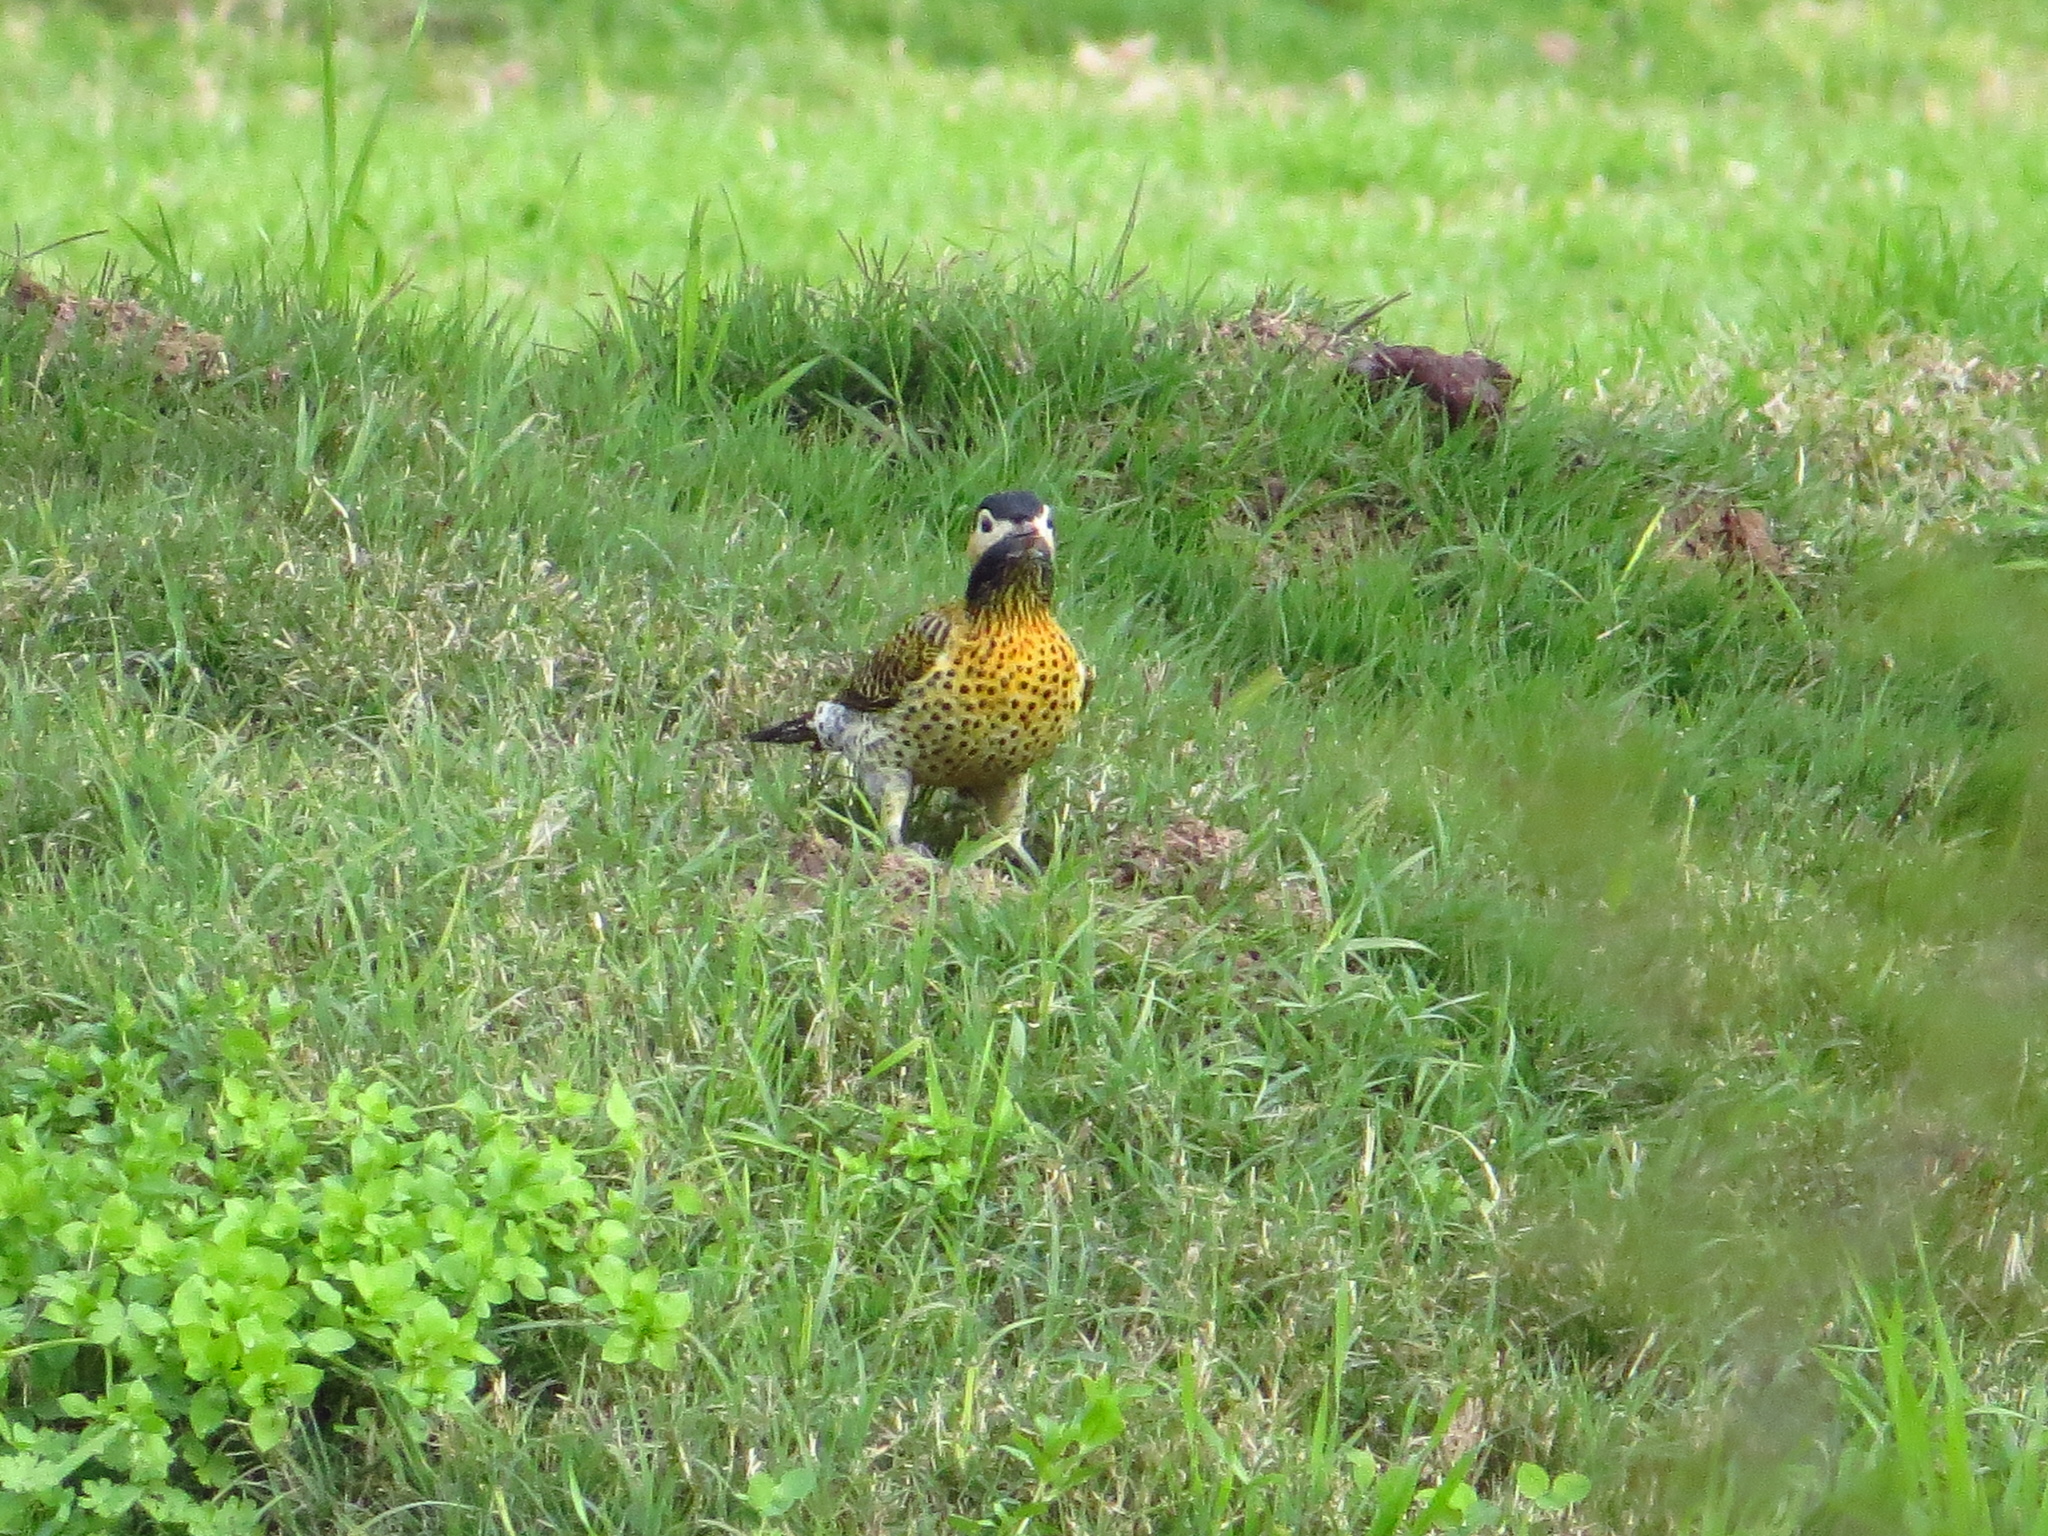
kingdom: Animalia
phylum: Chordata
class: Aves
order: Piciformes
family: Picidae
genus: Colaptes
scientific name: Colaptes melanochloros
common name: Green-barred woodpecker
